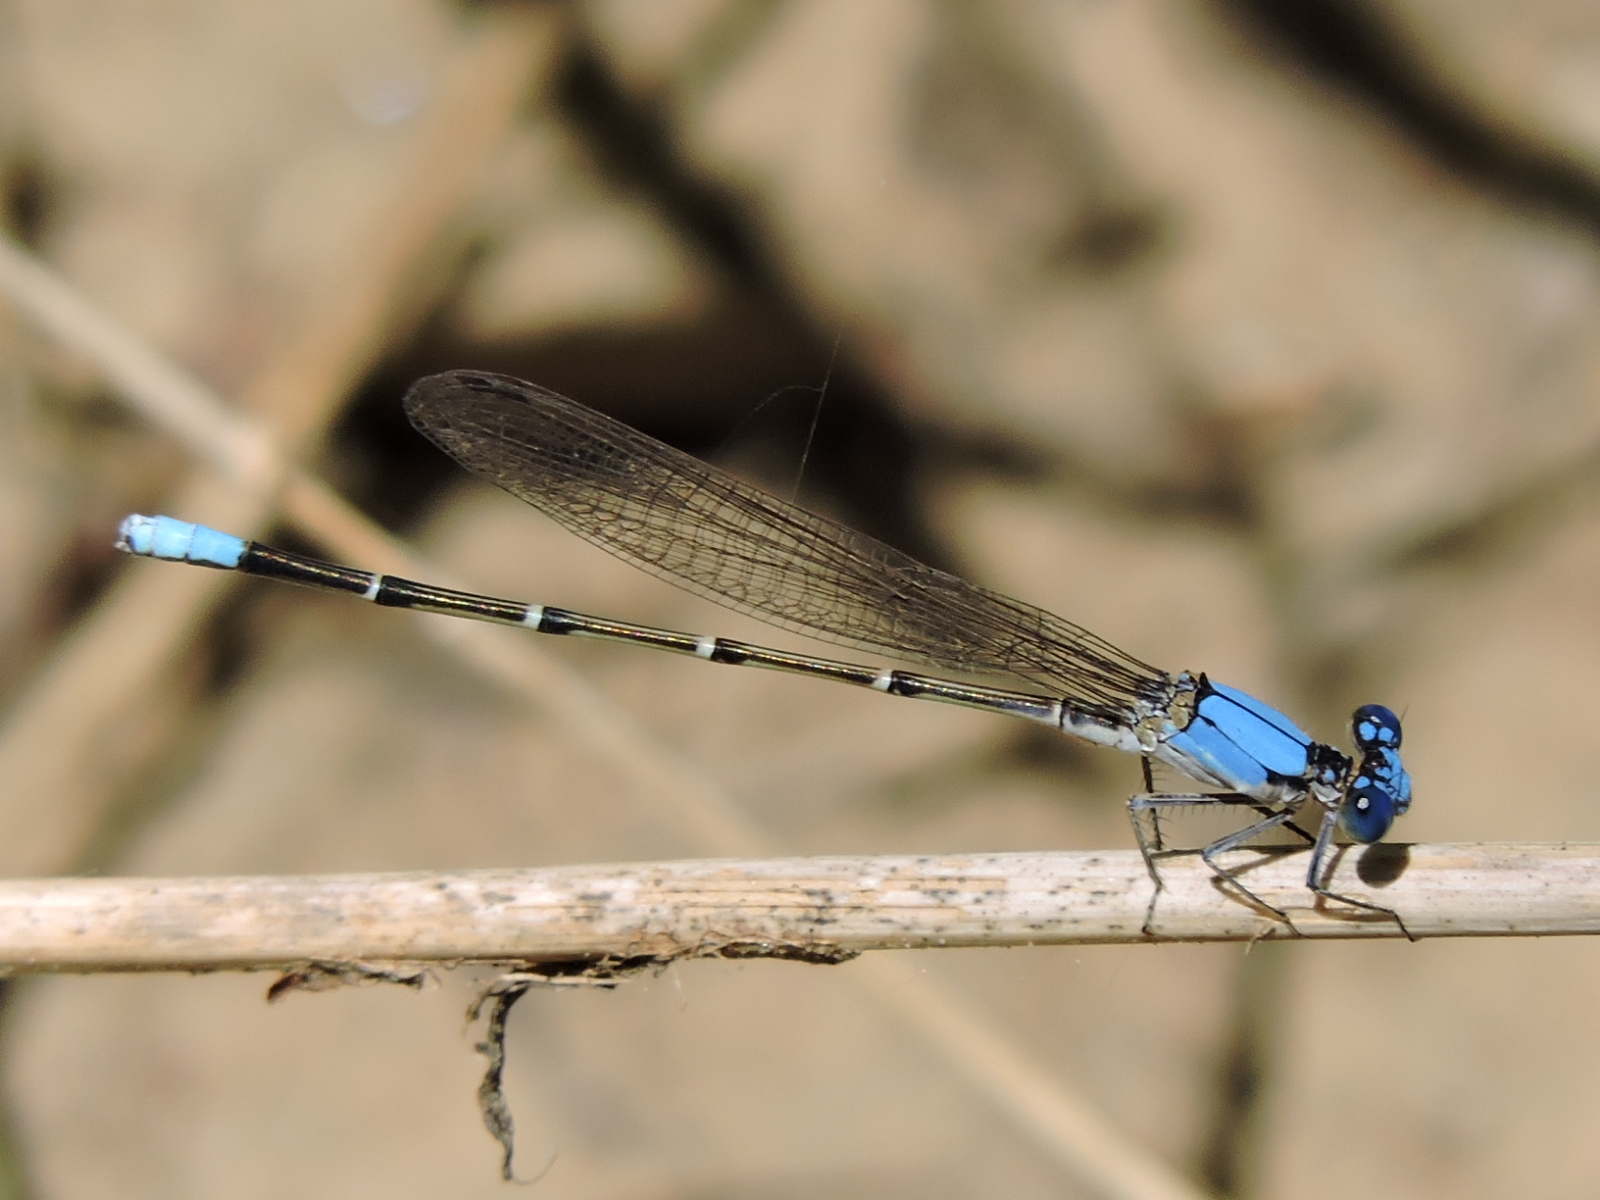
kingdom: Animalia
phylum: Arthropoda
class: Insecta
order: Odonata
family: Coenagrionidae
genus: Argia
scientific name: Argia apicalis
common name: Blue-fronted dancer
